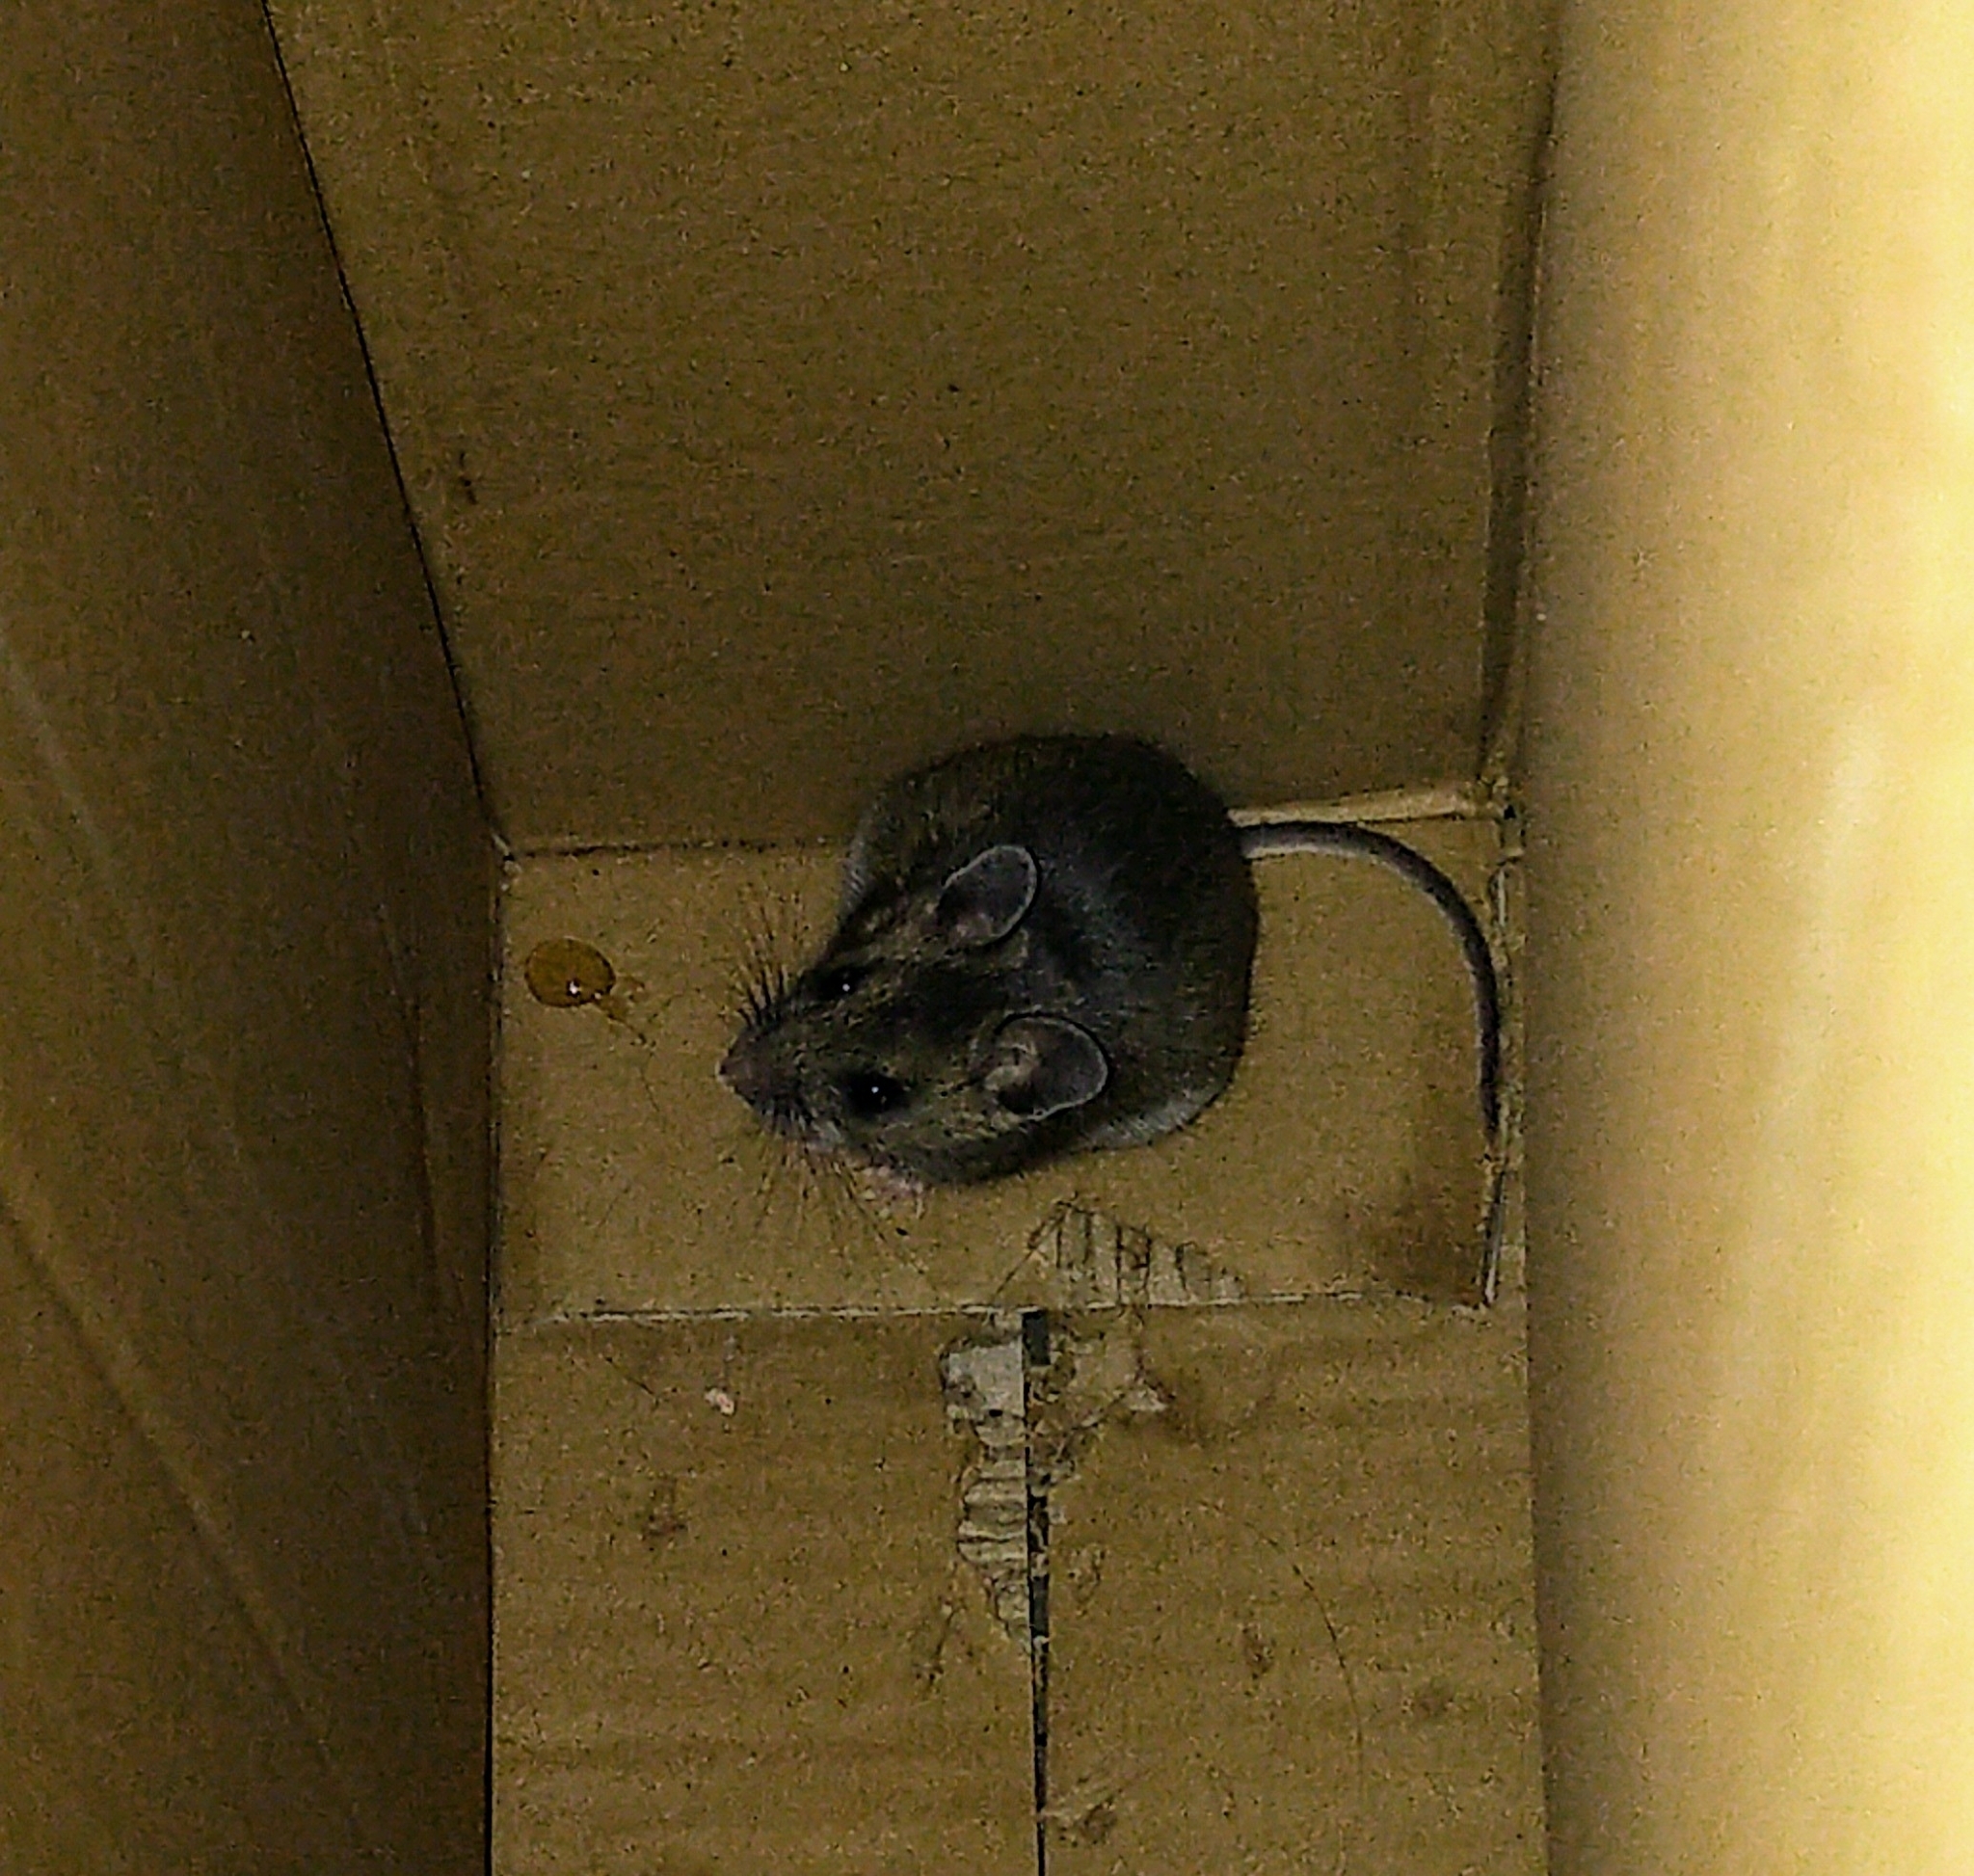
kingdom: Animalia
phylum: Chordata
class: Mammalia
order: Rodentia
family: Cricetidae
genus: Peromyscus
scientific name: Peromyscus maniculatus
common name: Deer mouse
